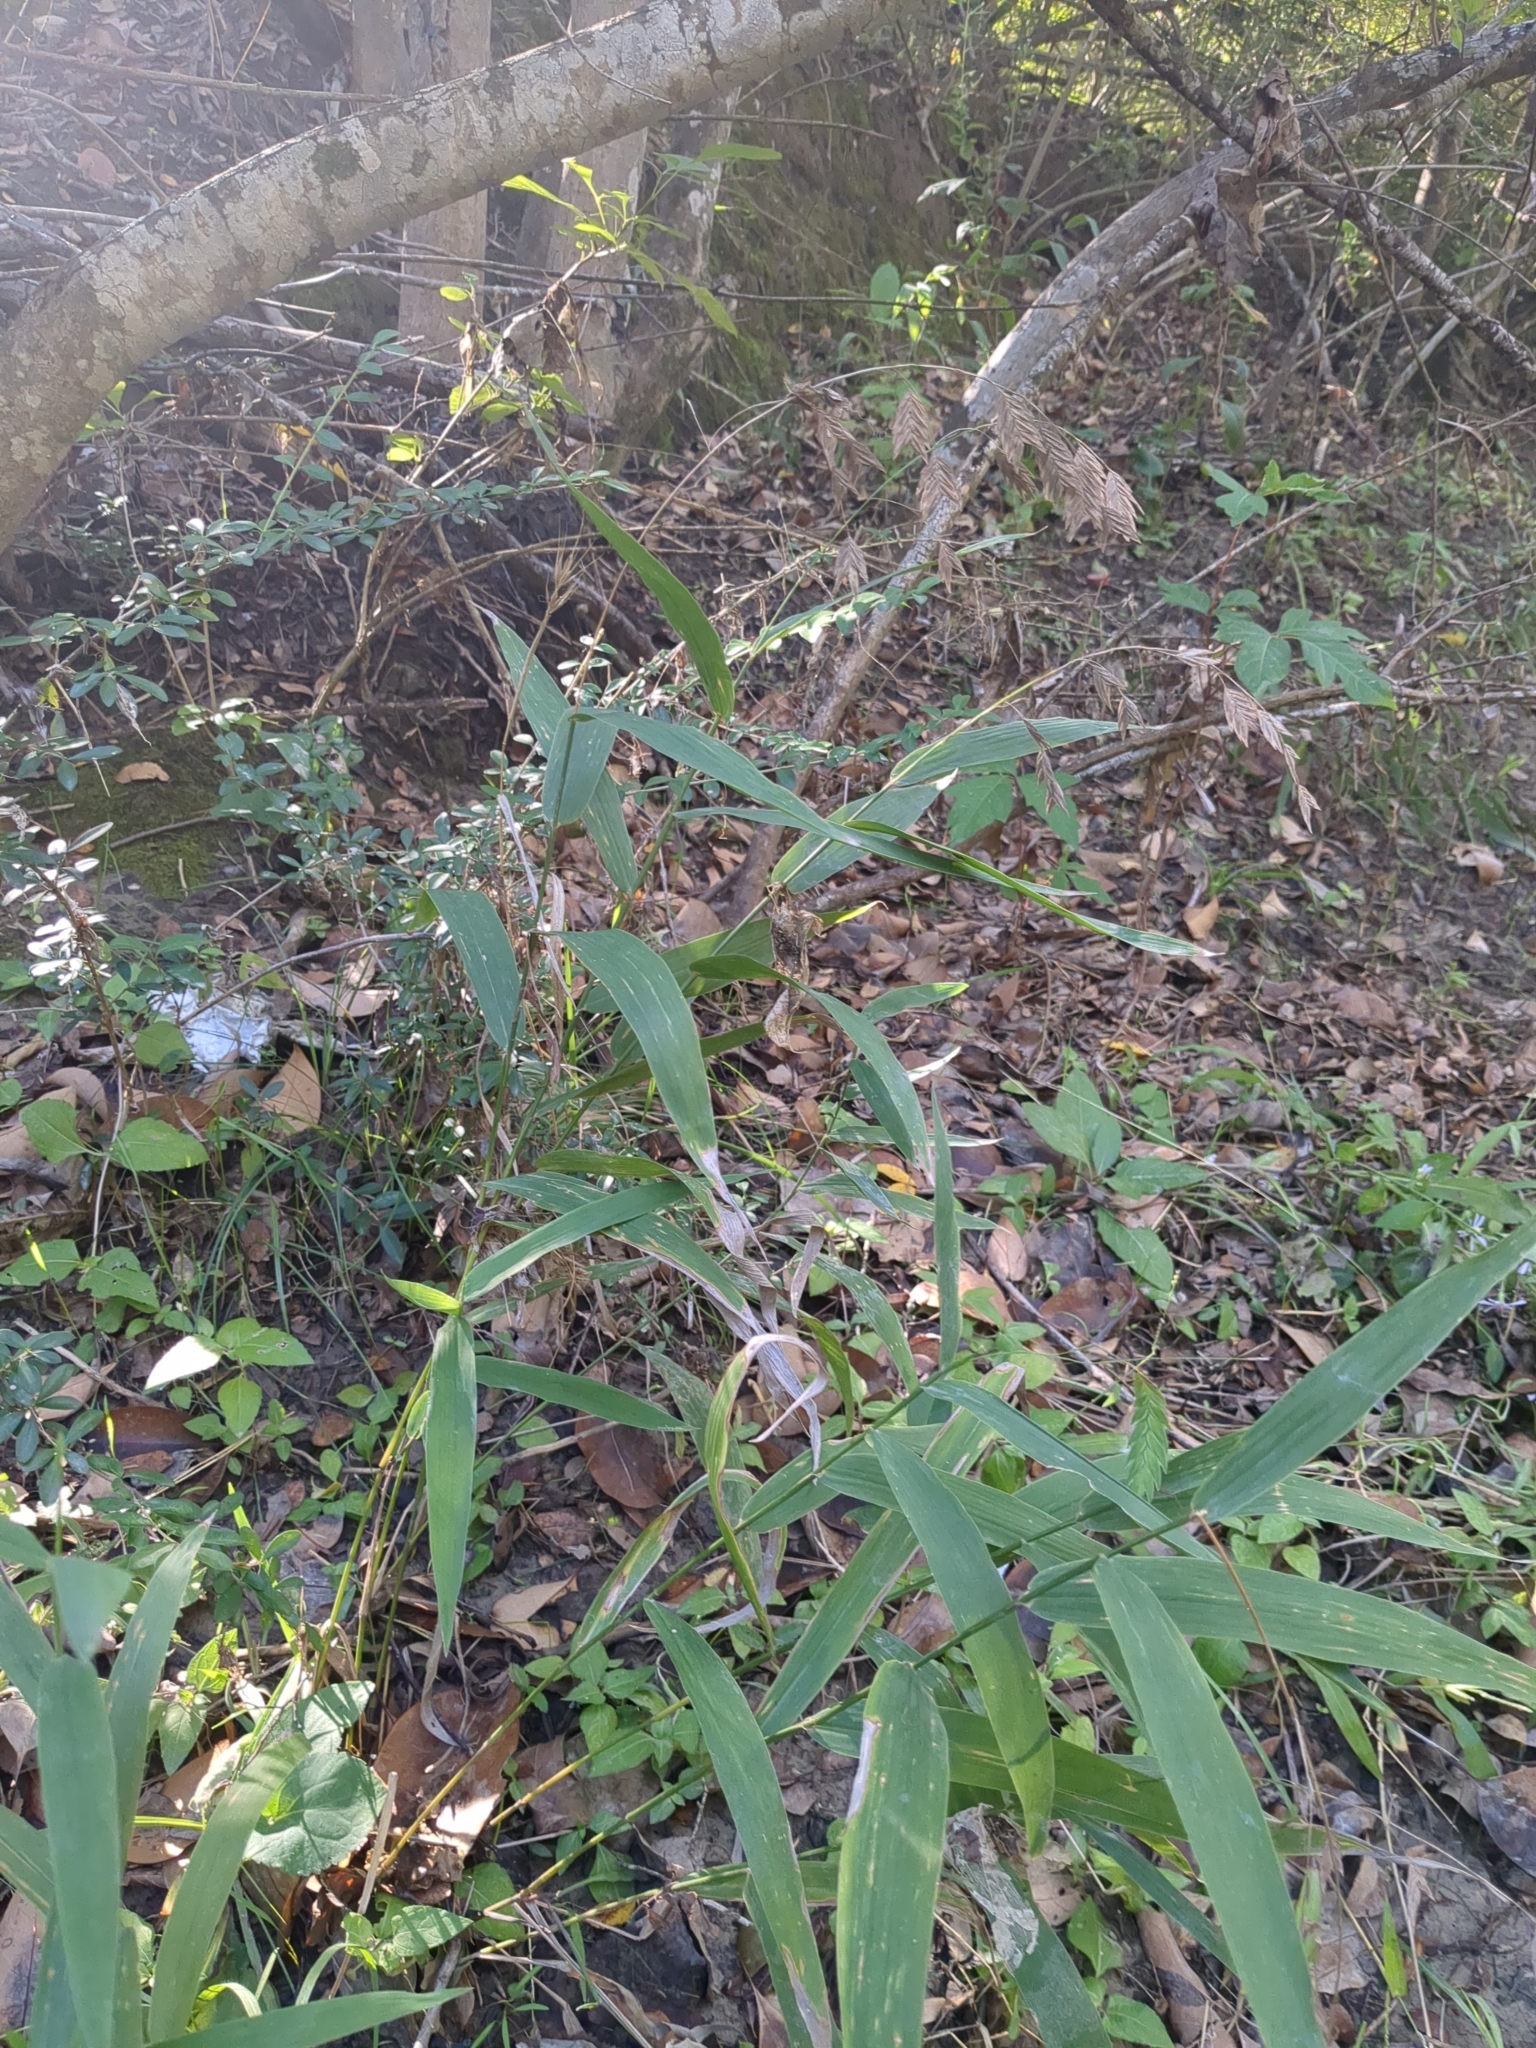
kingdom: Plantae
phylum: Tracheophyta
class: Liliopsida
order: Poales
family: Poaceae
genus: Chasmanthium
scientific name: Chasmanthium latifolium
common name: Broad-leaved chasmanthium
